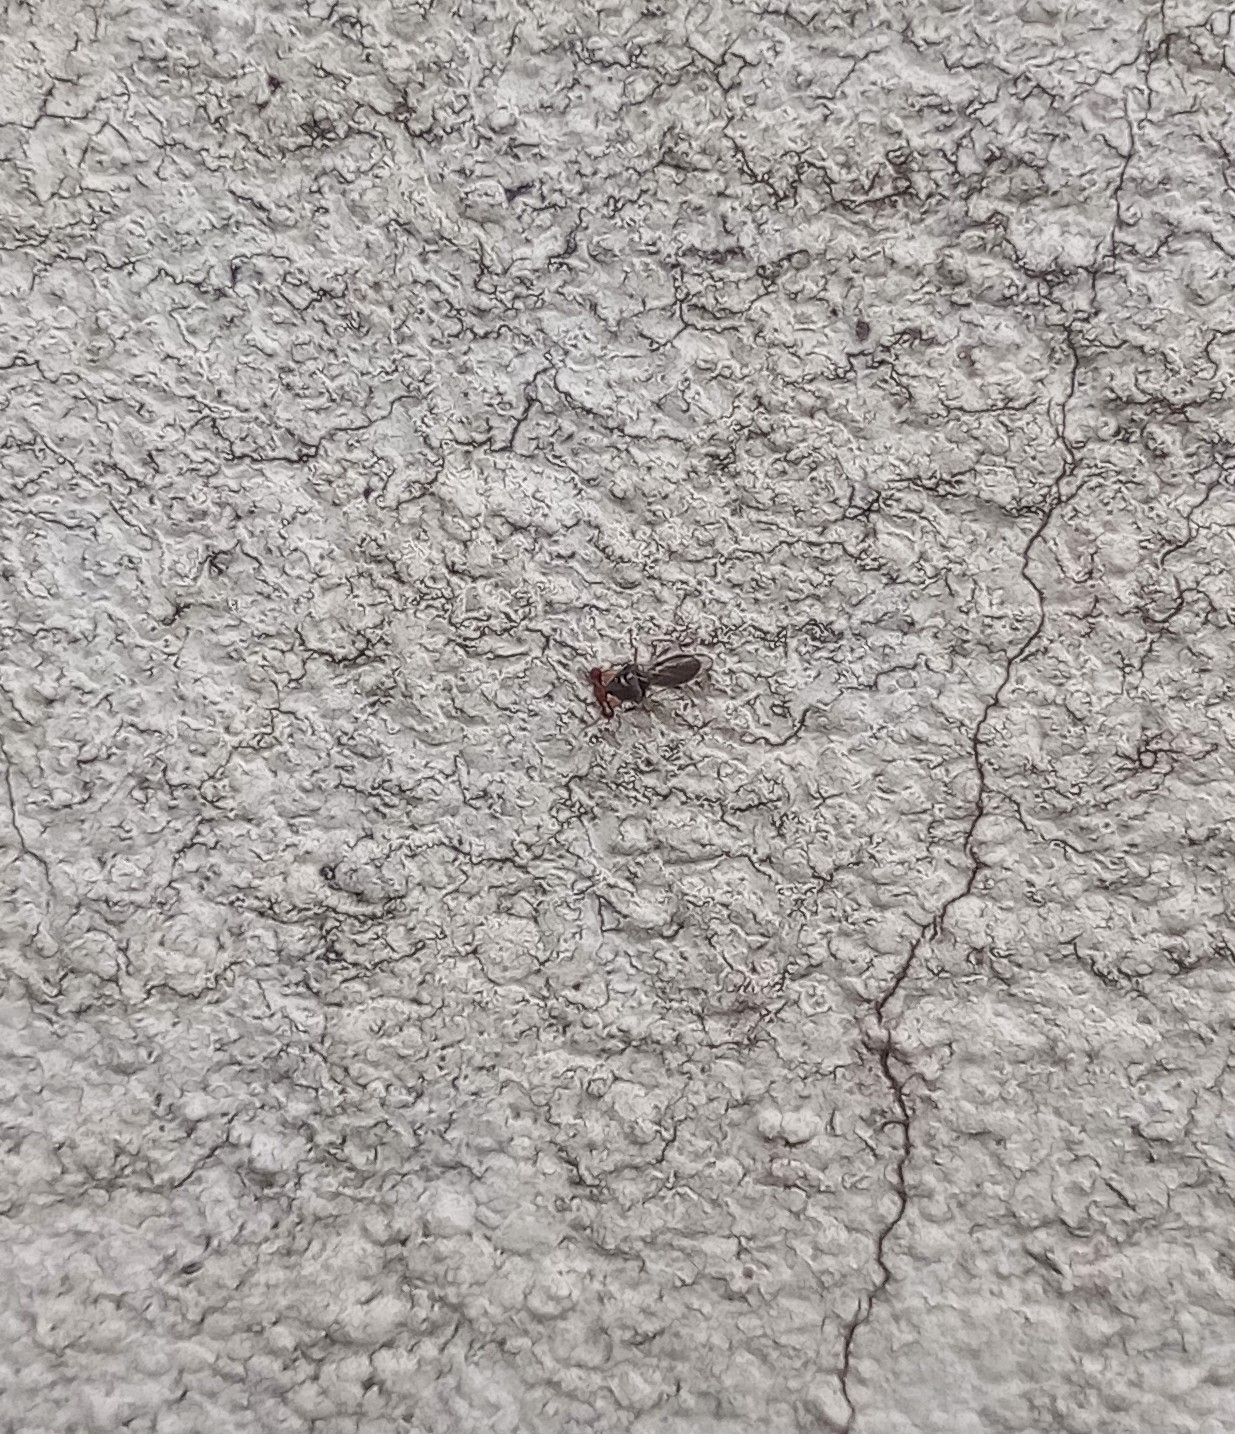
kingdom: Animalia
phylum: Arthropoda
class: Insecta
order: Diptera
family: Diopsidae
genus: Sphyracephala
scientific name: Sphyracephala hearseiana
